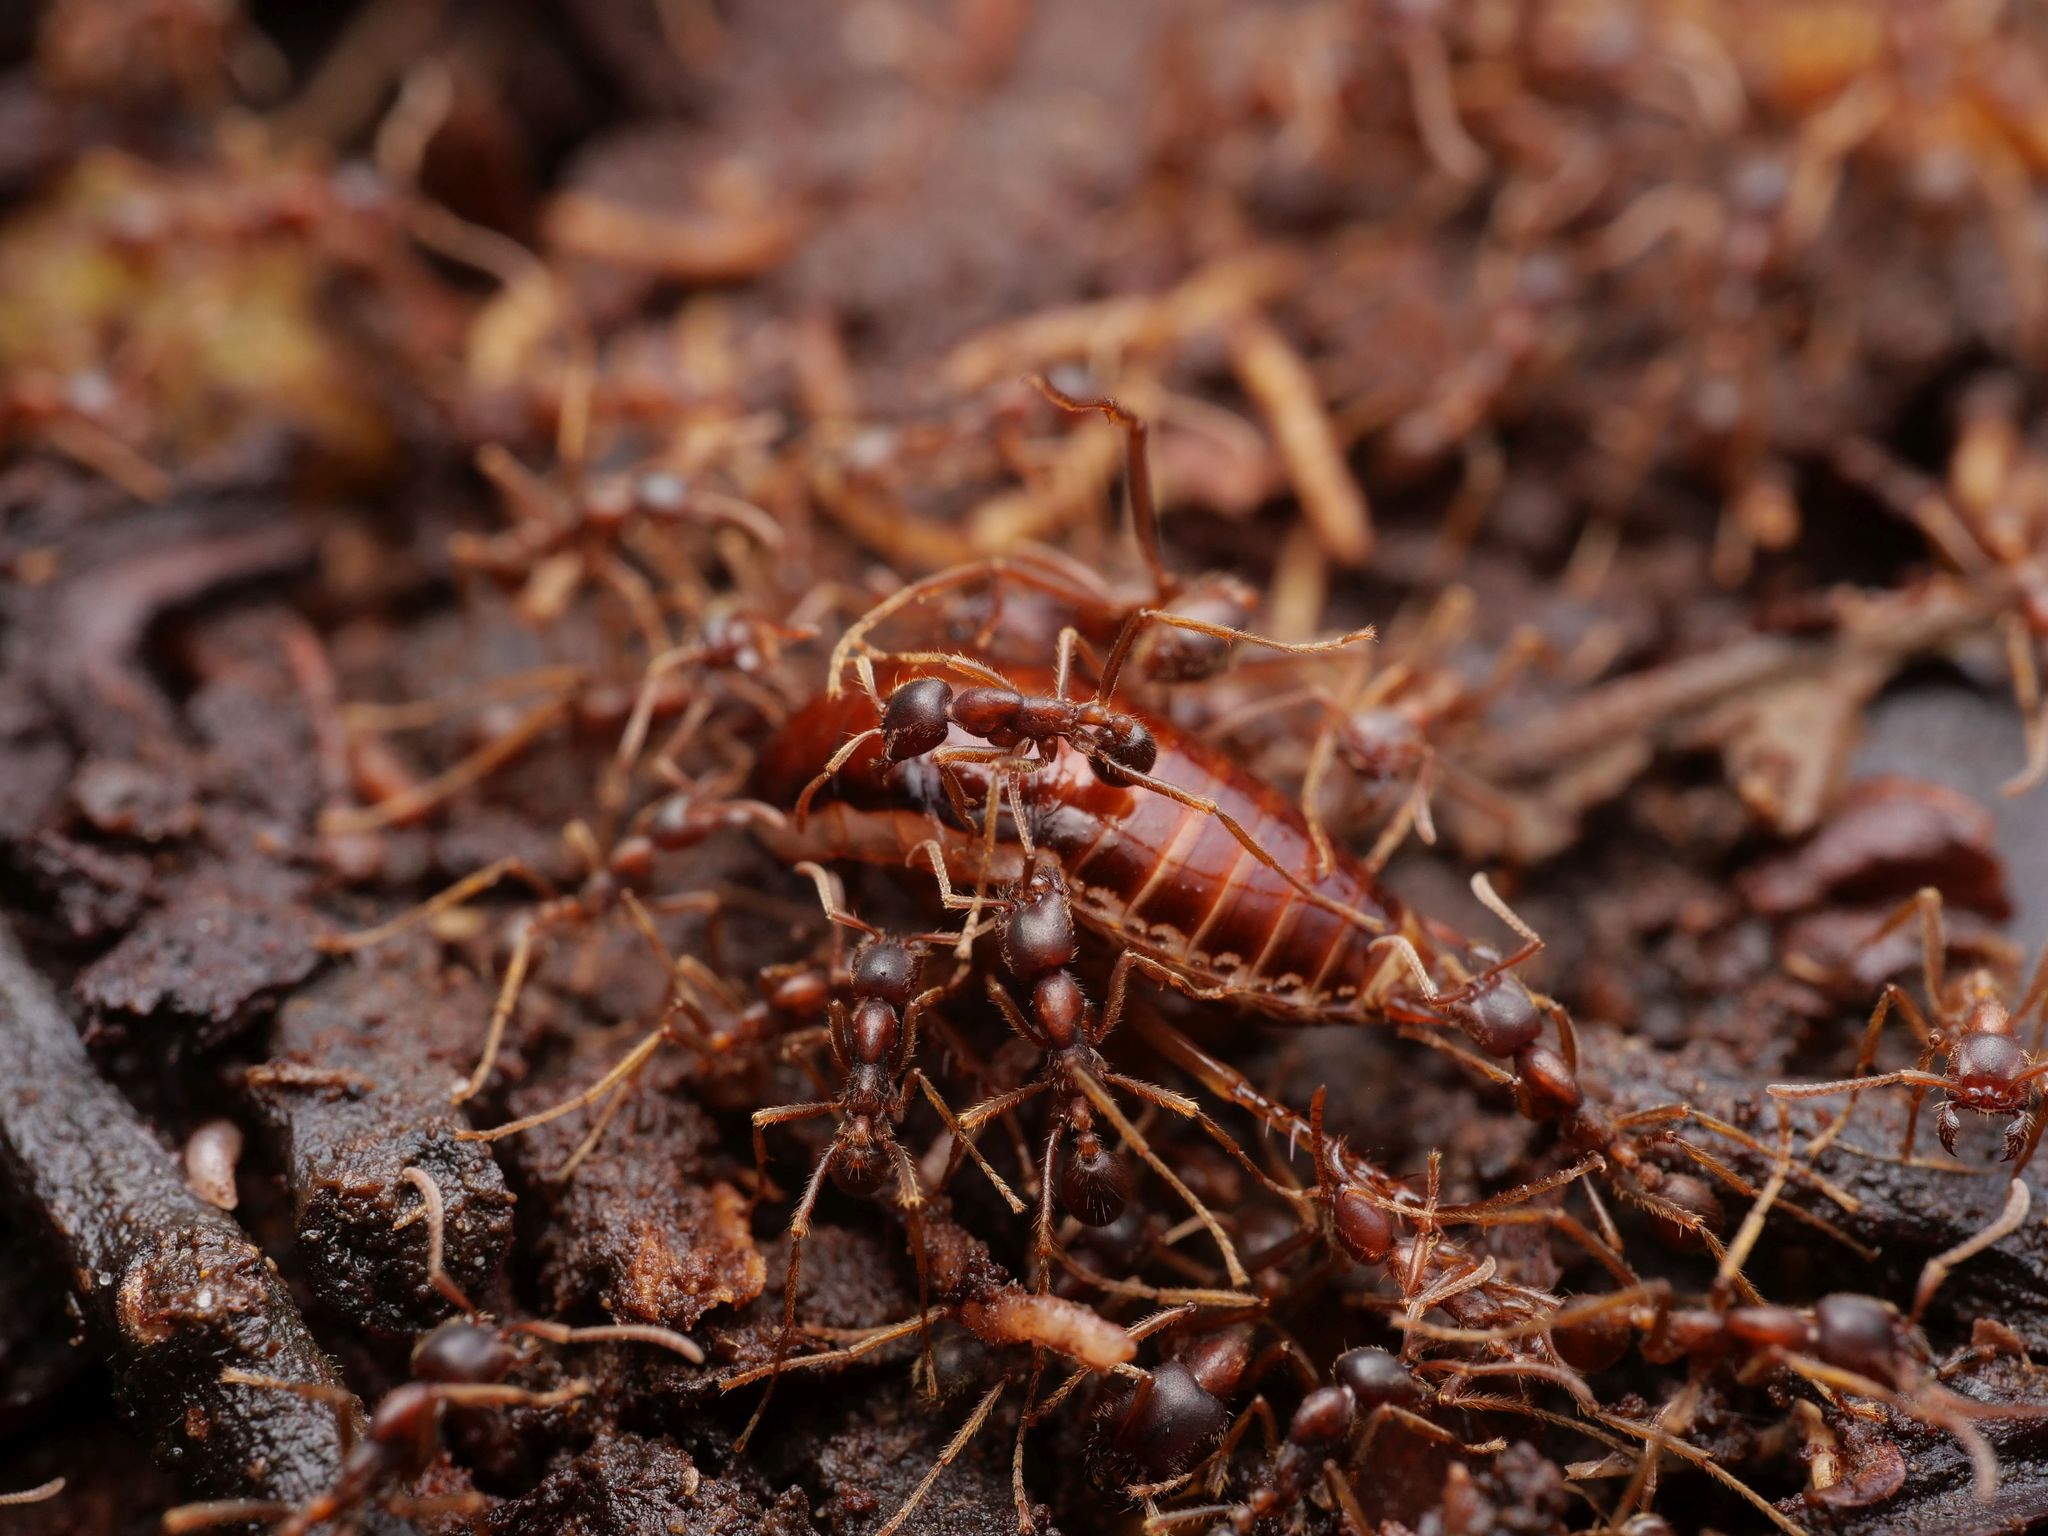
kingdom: Animalia
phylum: Arthropoda
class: Insecta
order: Hymenoptera
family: Formicidae
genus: Labidus
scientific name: Labidus spininodis
